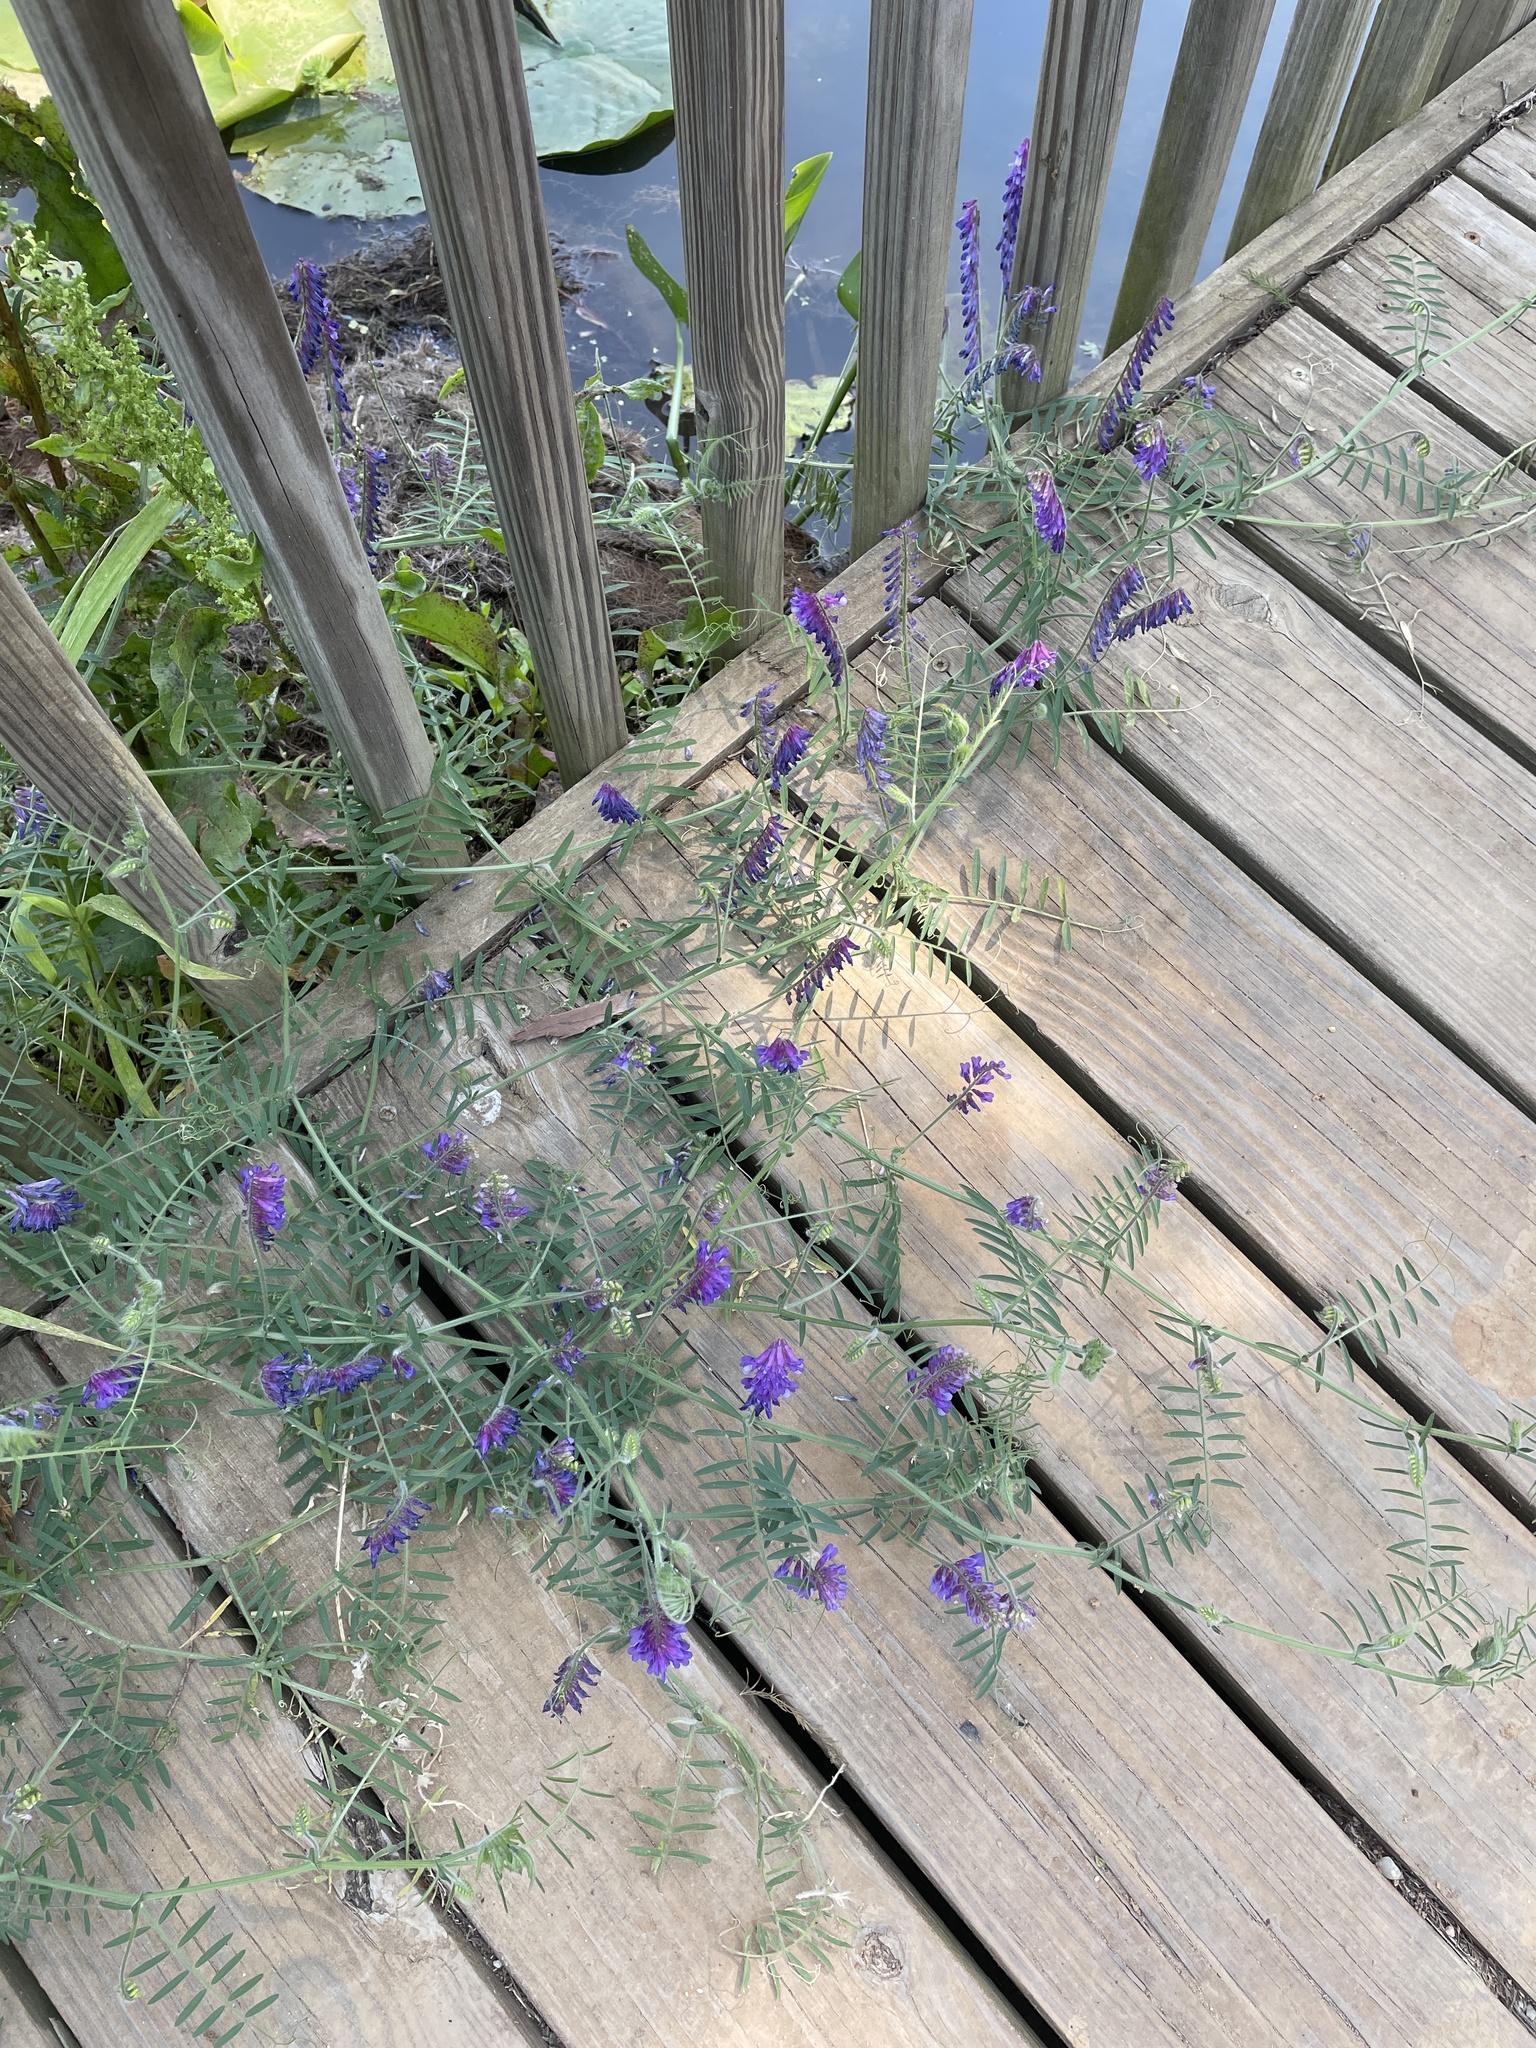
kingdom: Plantae
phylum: Tracheophyta
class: Magnoliopsida
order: Fabales
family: Fabaceae
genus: Vicia
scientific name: Vicia villosa
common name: Fodder vetch
